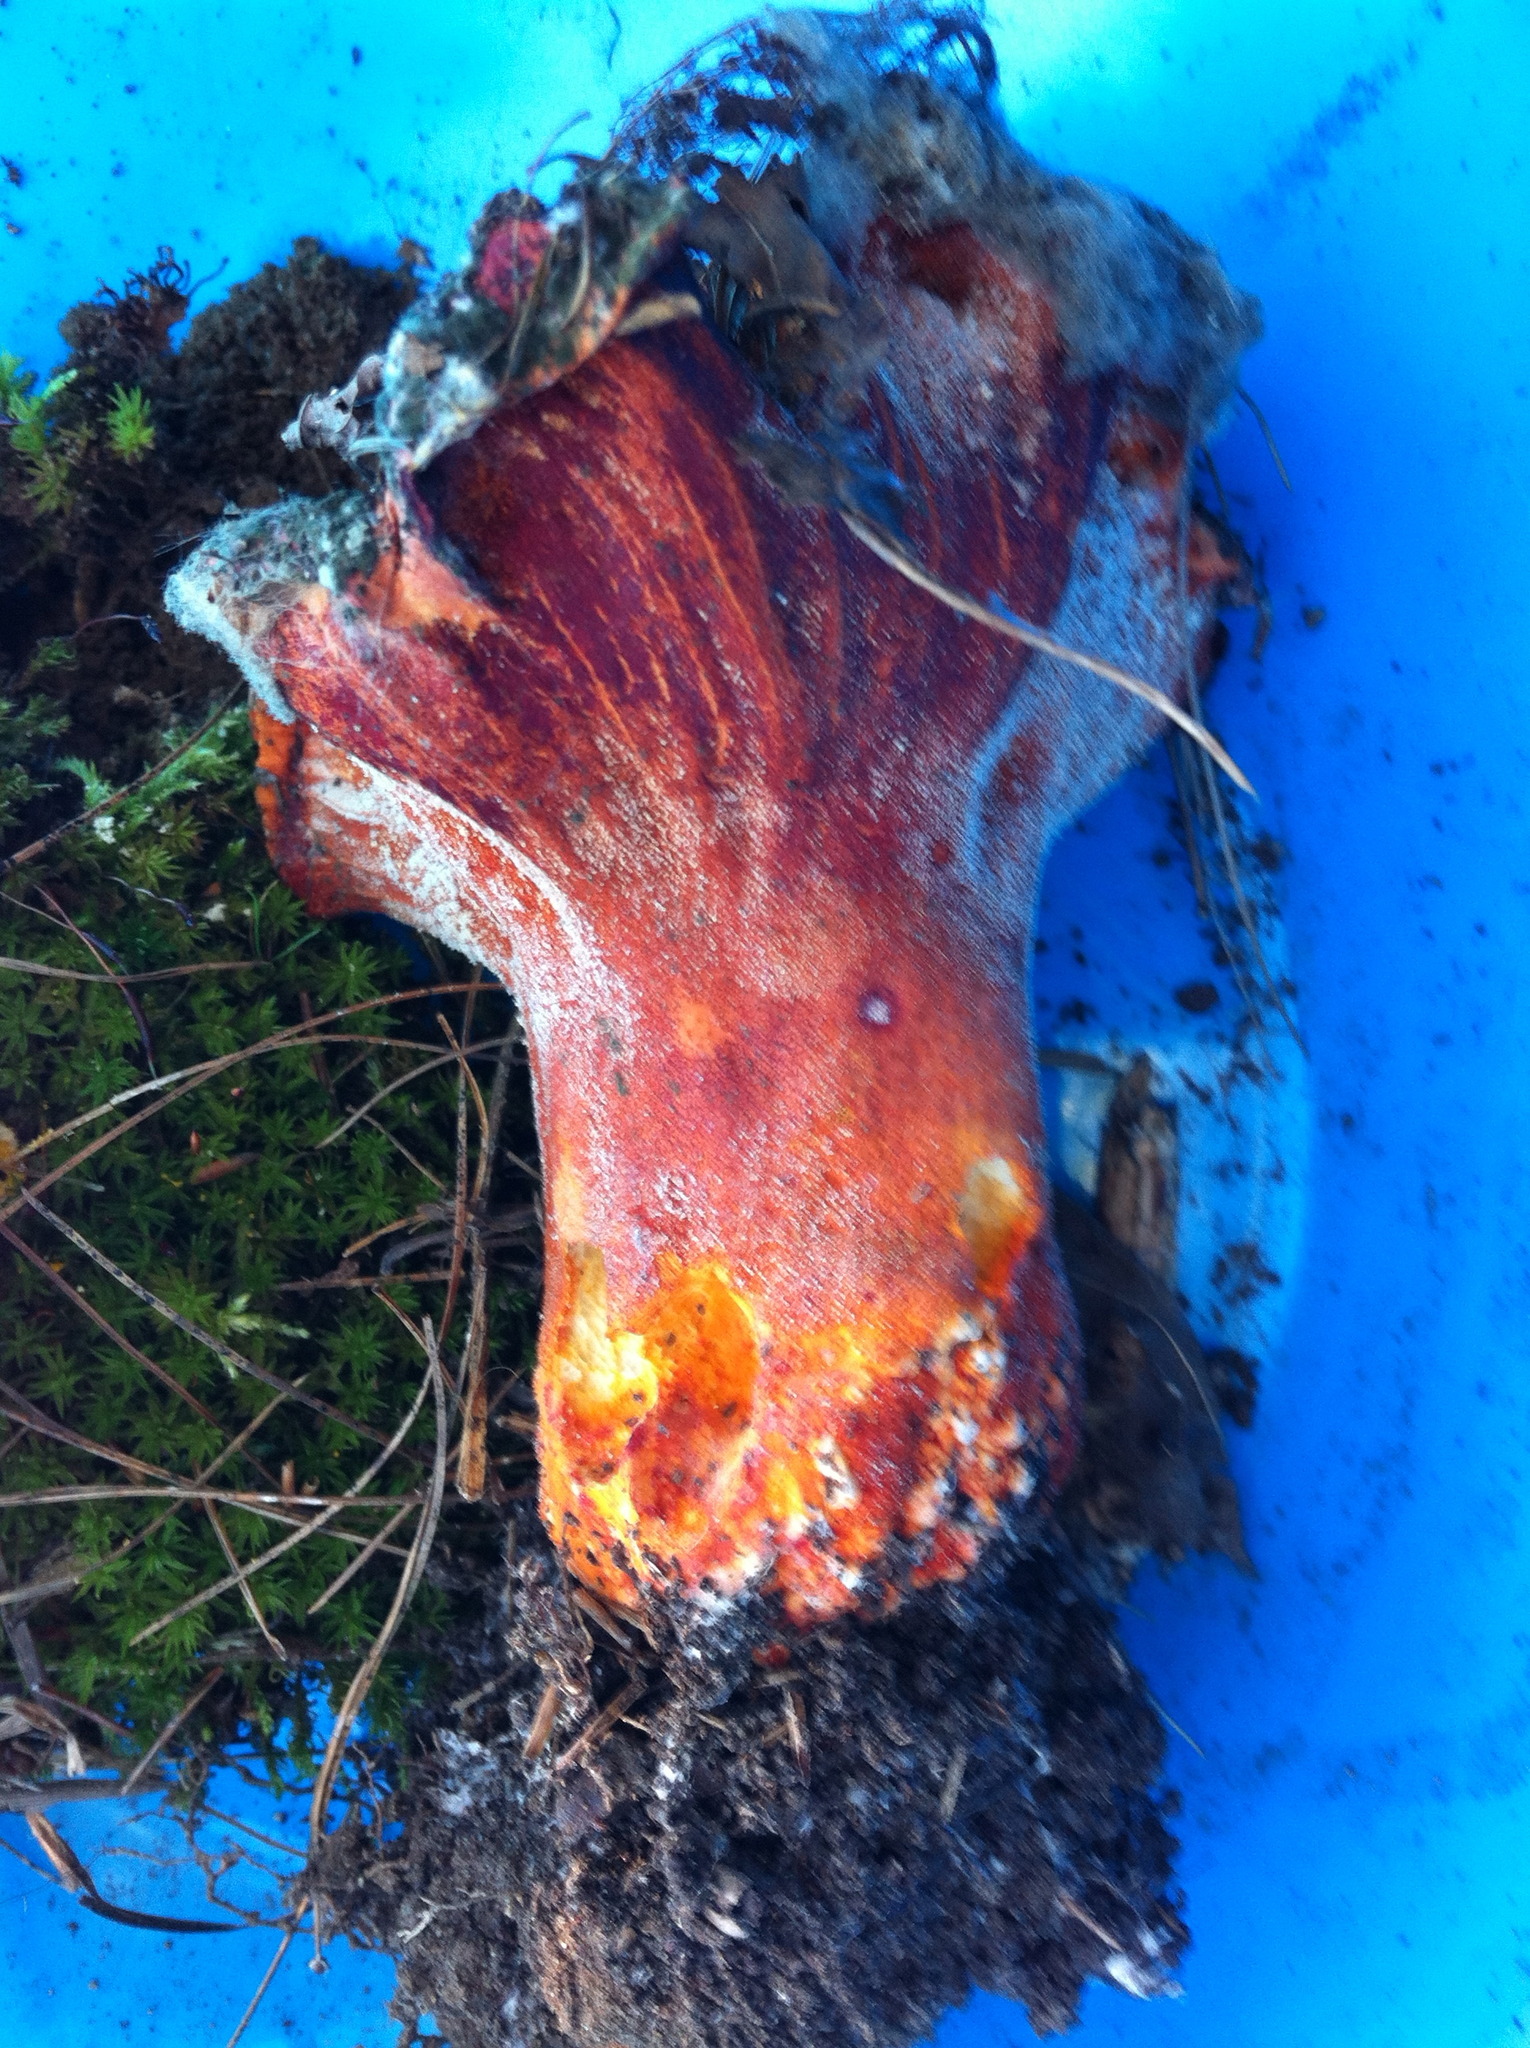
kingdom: Fungi
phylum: Ascomycota
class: Sordariomycetes
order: Hypocreales
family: Hypocreaceae
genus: Hypomyces
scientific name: Hypomyces lactifluorum
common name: Lobster mushroom
